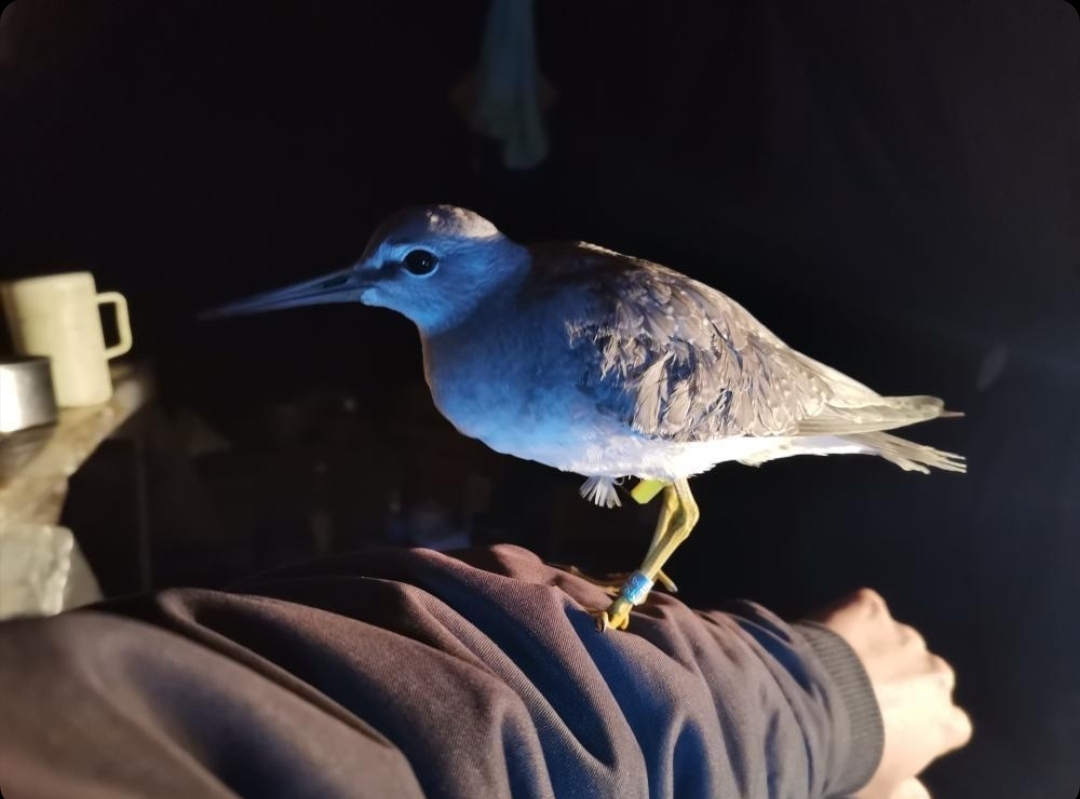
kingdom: Animalia
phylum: Chordata
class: Aves
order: Charadriiformes
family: Scolopacidae
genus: Tringa
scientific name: Tringa brevipes
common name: Grey-tailed tattler
